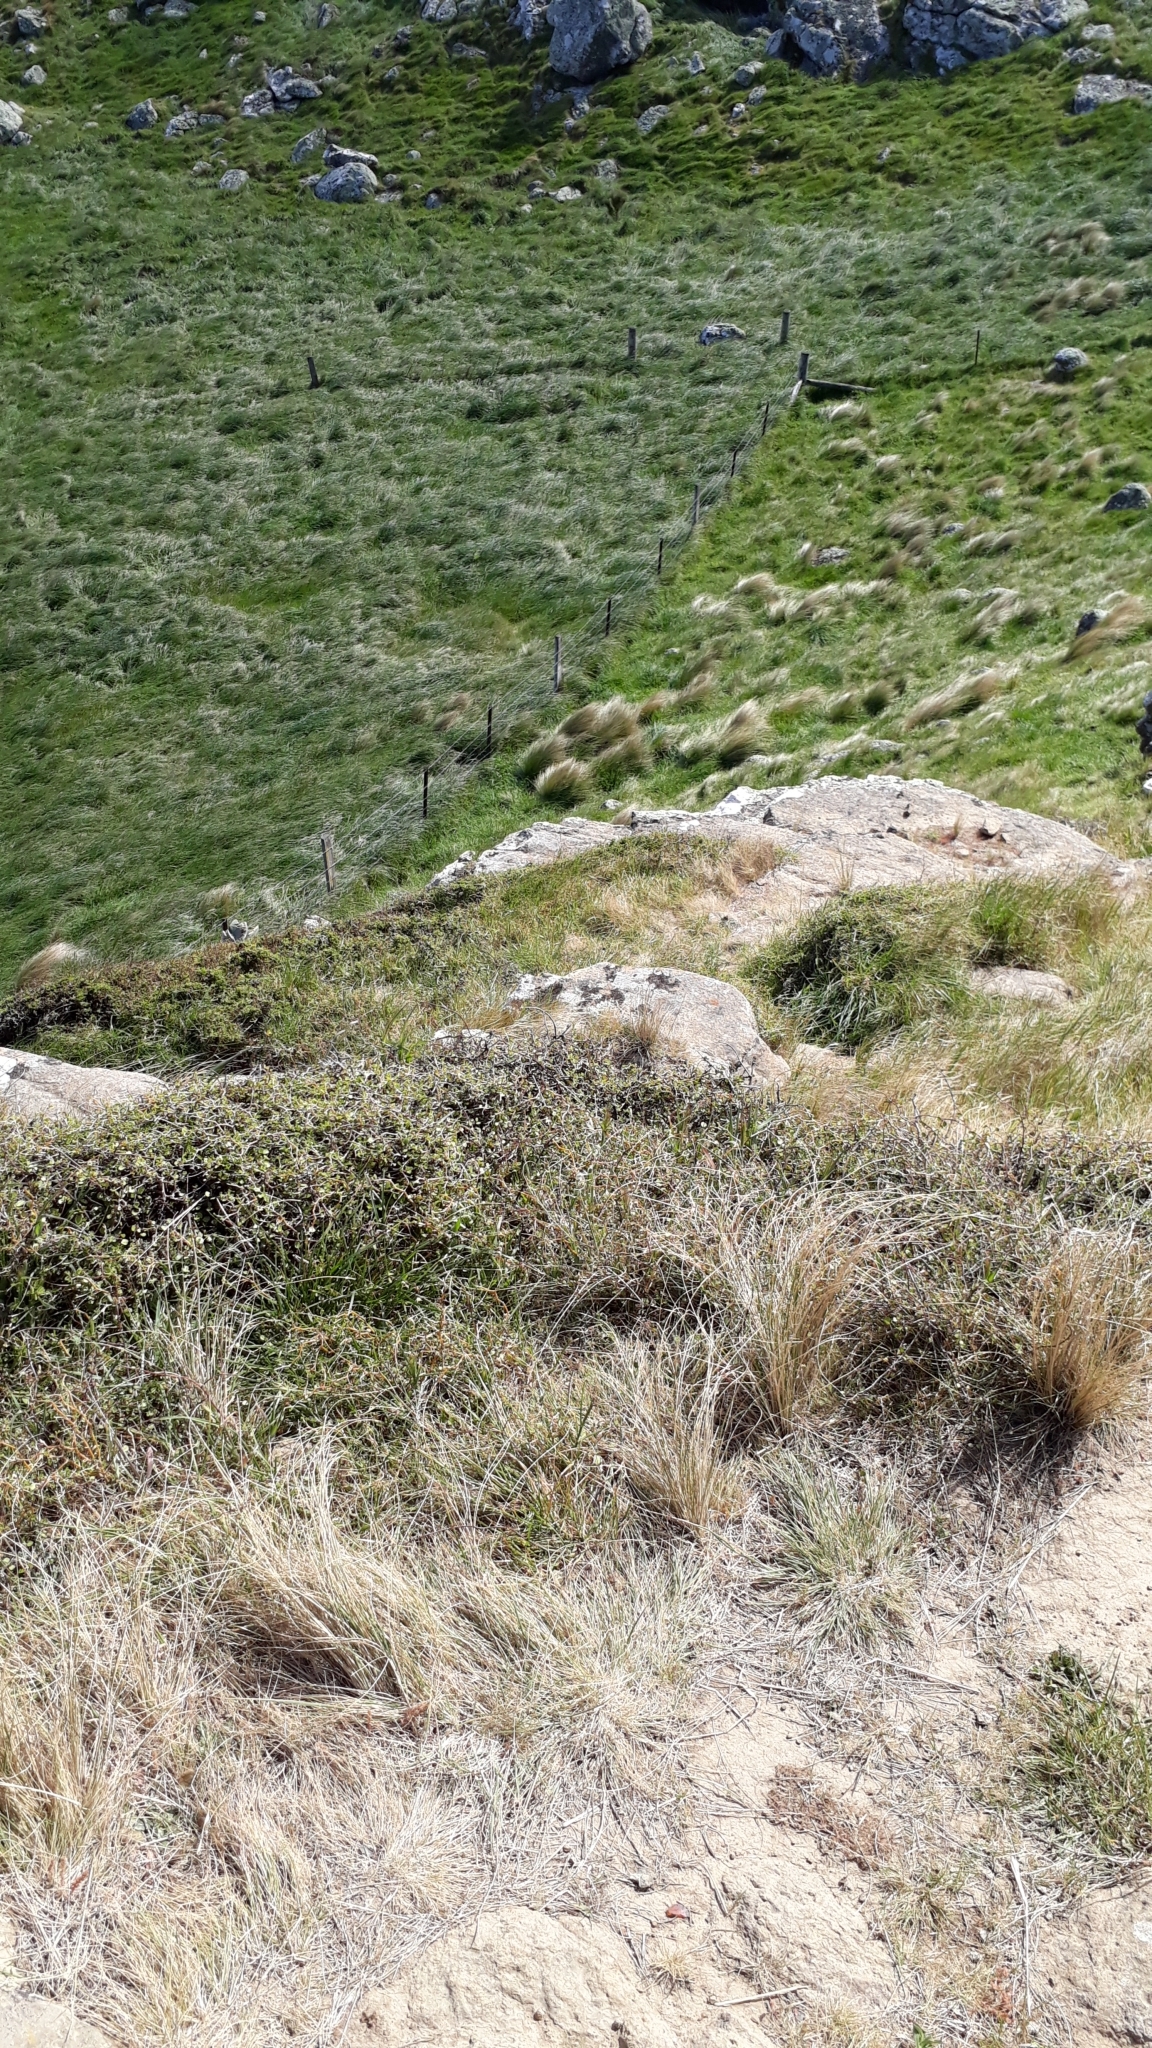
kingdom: Plantae
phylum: Tracheophyta
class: Magnoliopsida
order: Fabales
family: Fabaceae
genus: Sophora
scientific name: Sophora prostrata
